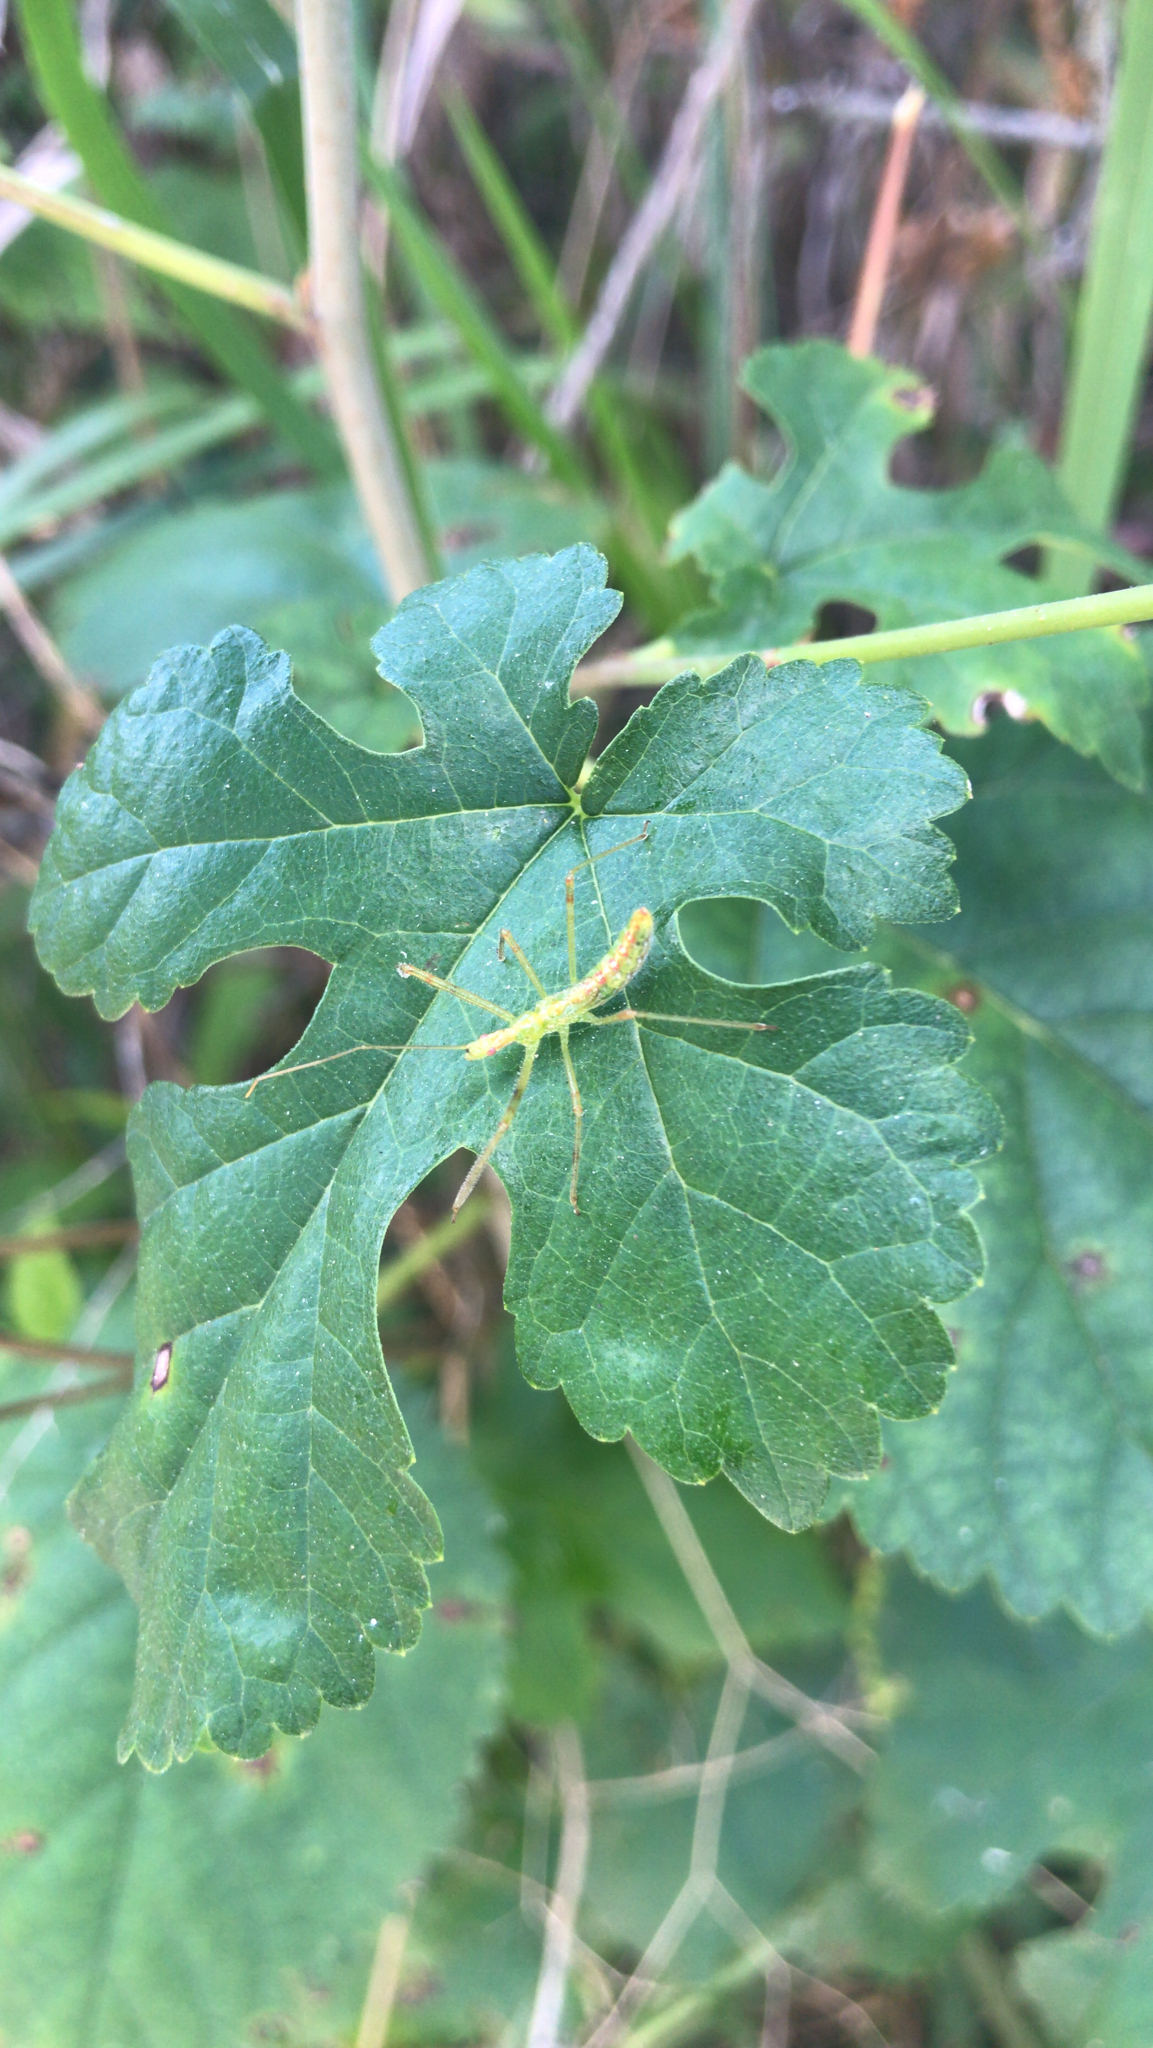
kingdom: Animalia
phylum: Arthropoda
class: Insecta
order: Hemiptera
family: Reduviidae
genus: Zelus
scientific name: Zelus luridus
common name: Pale green assassin bug
